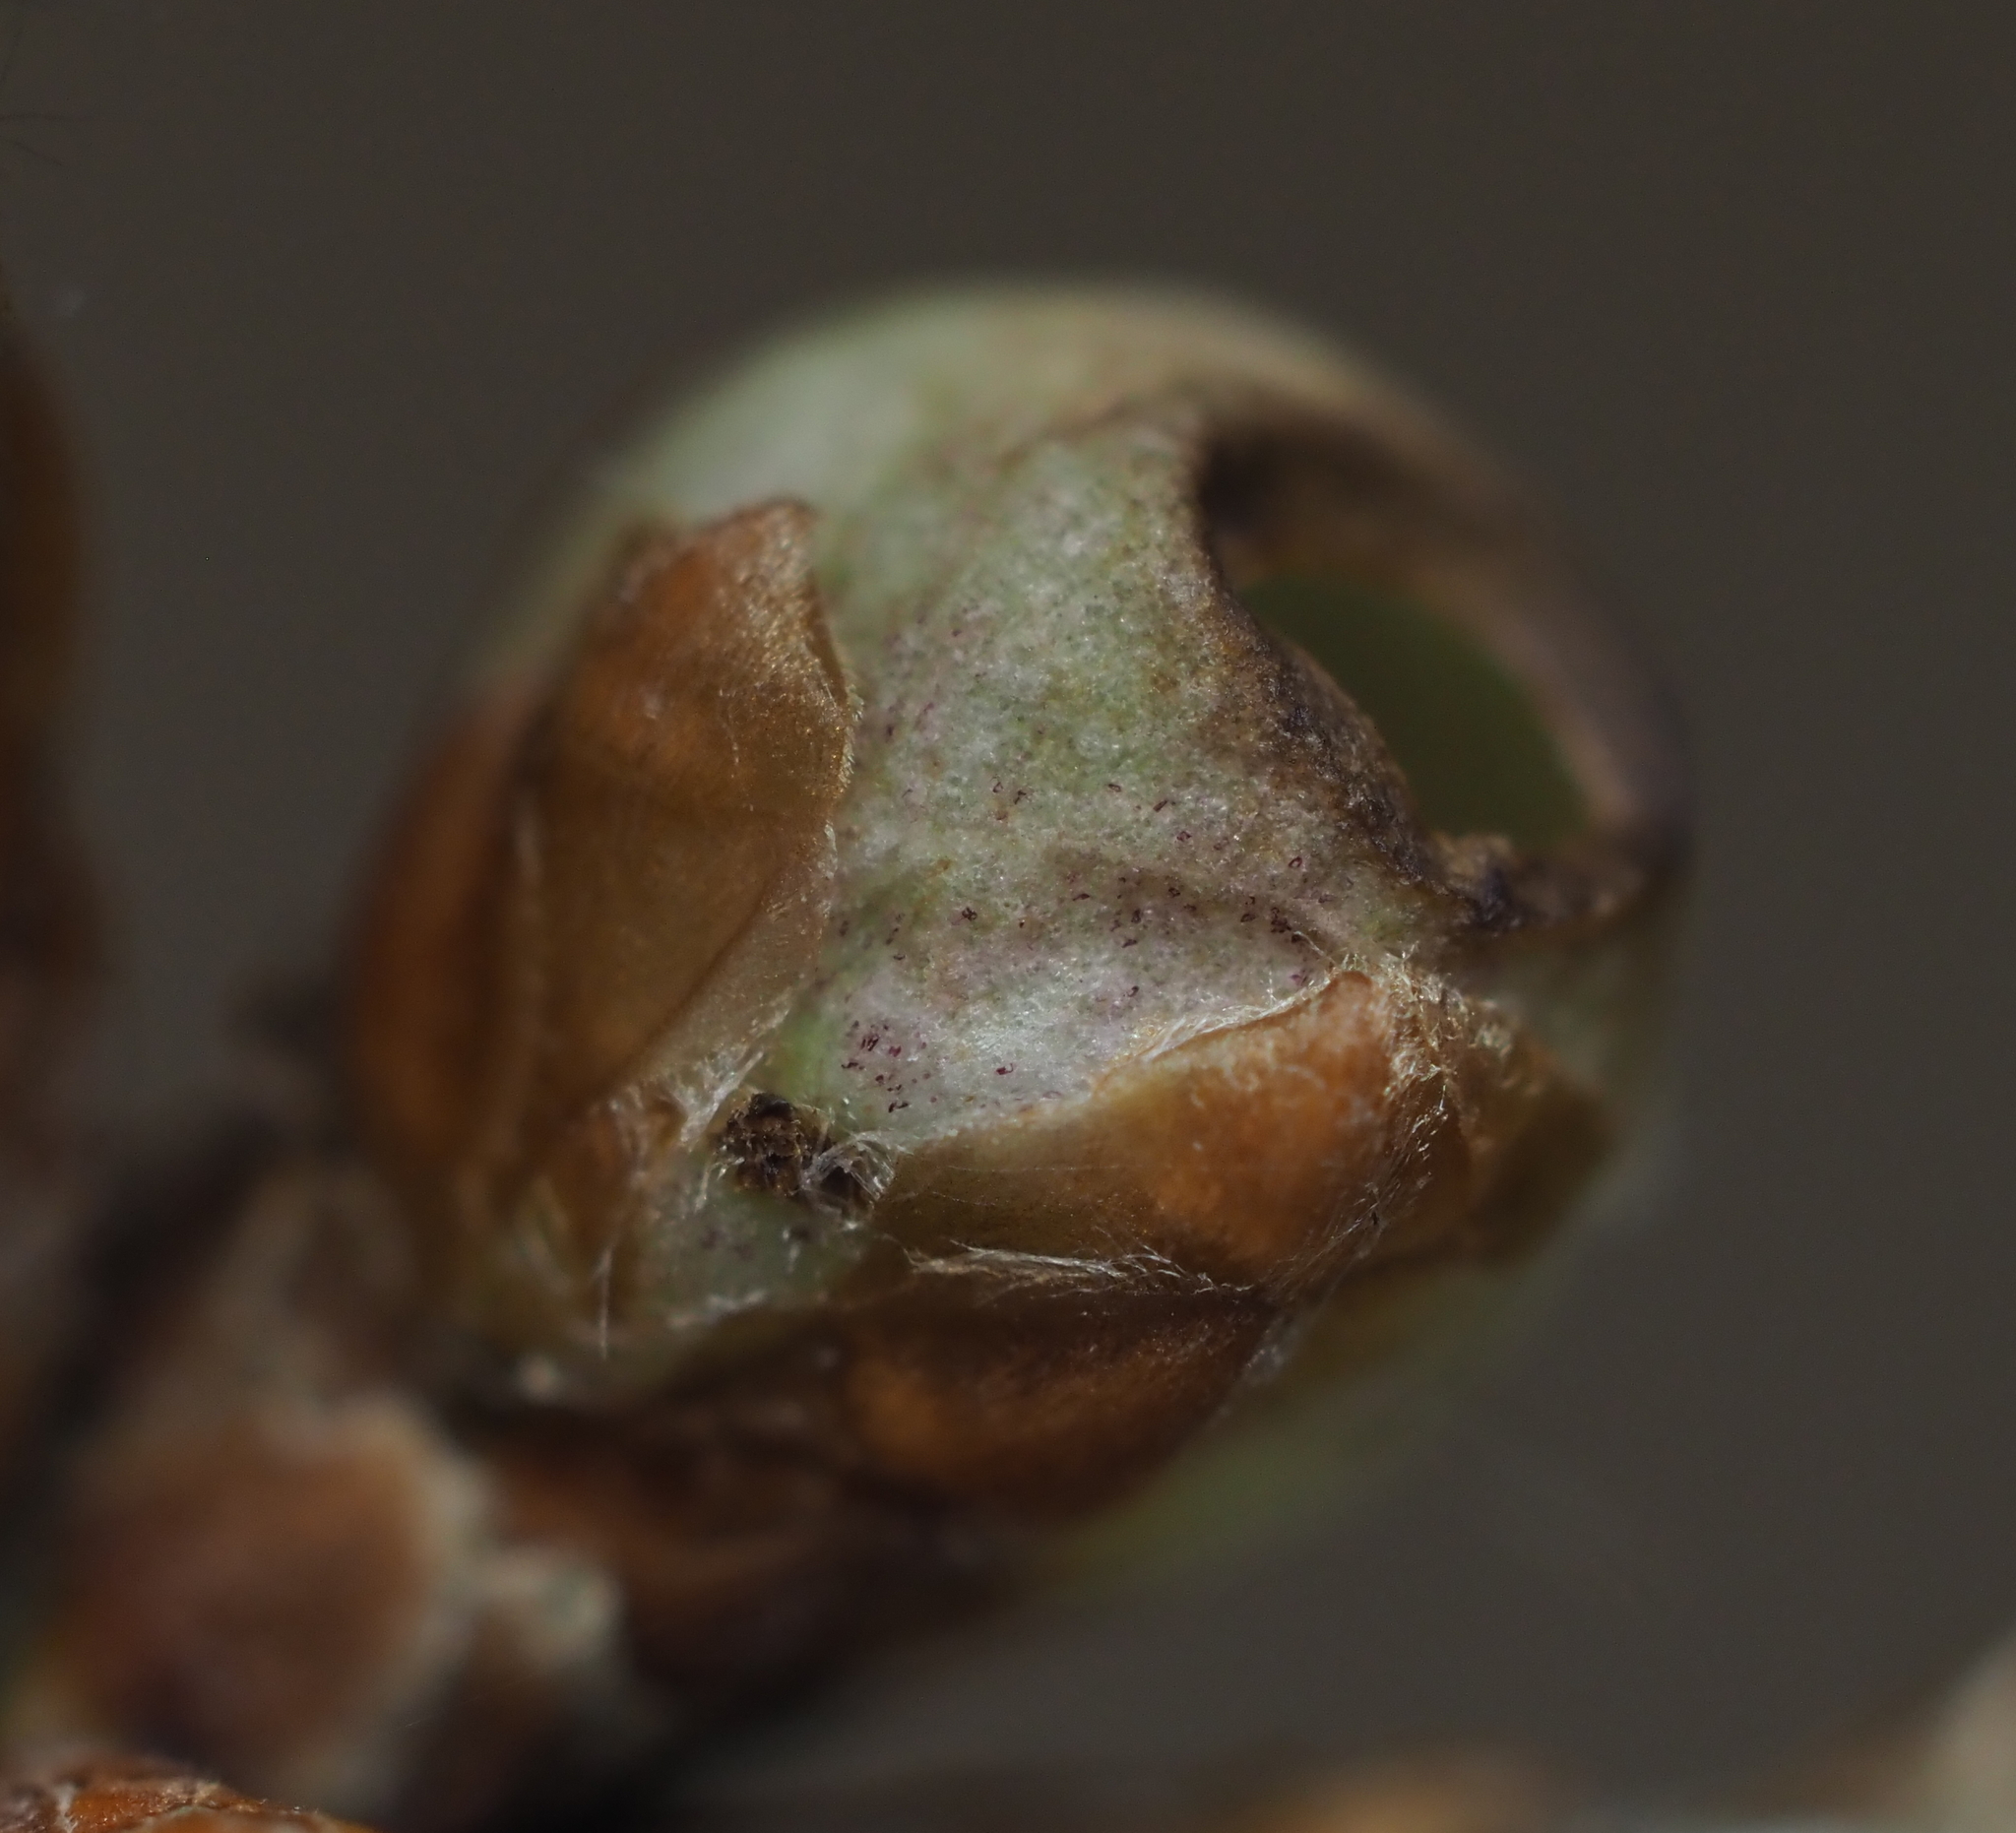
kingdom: Animalia
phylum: Arthropoda
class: Insecta
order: Hymenoptera
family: Cynipidae
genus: Neuroterus
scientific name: Neuroterus
